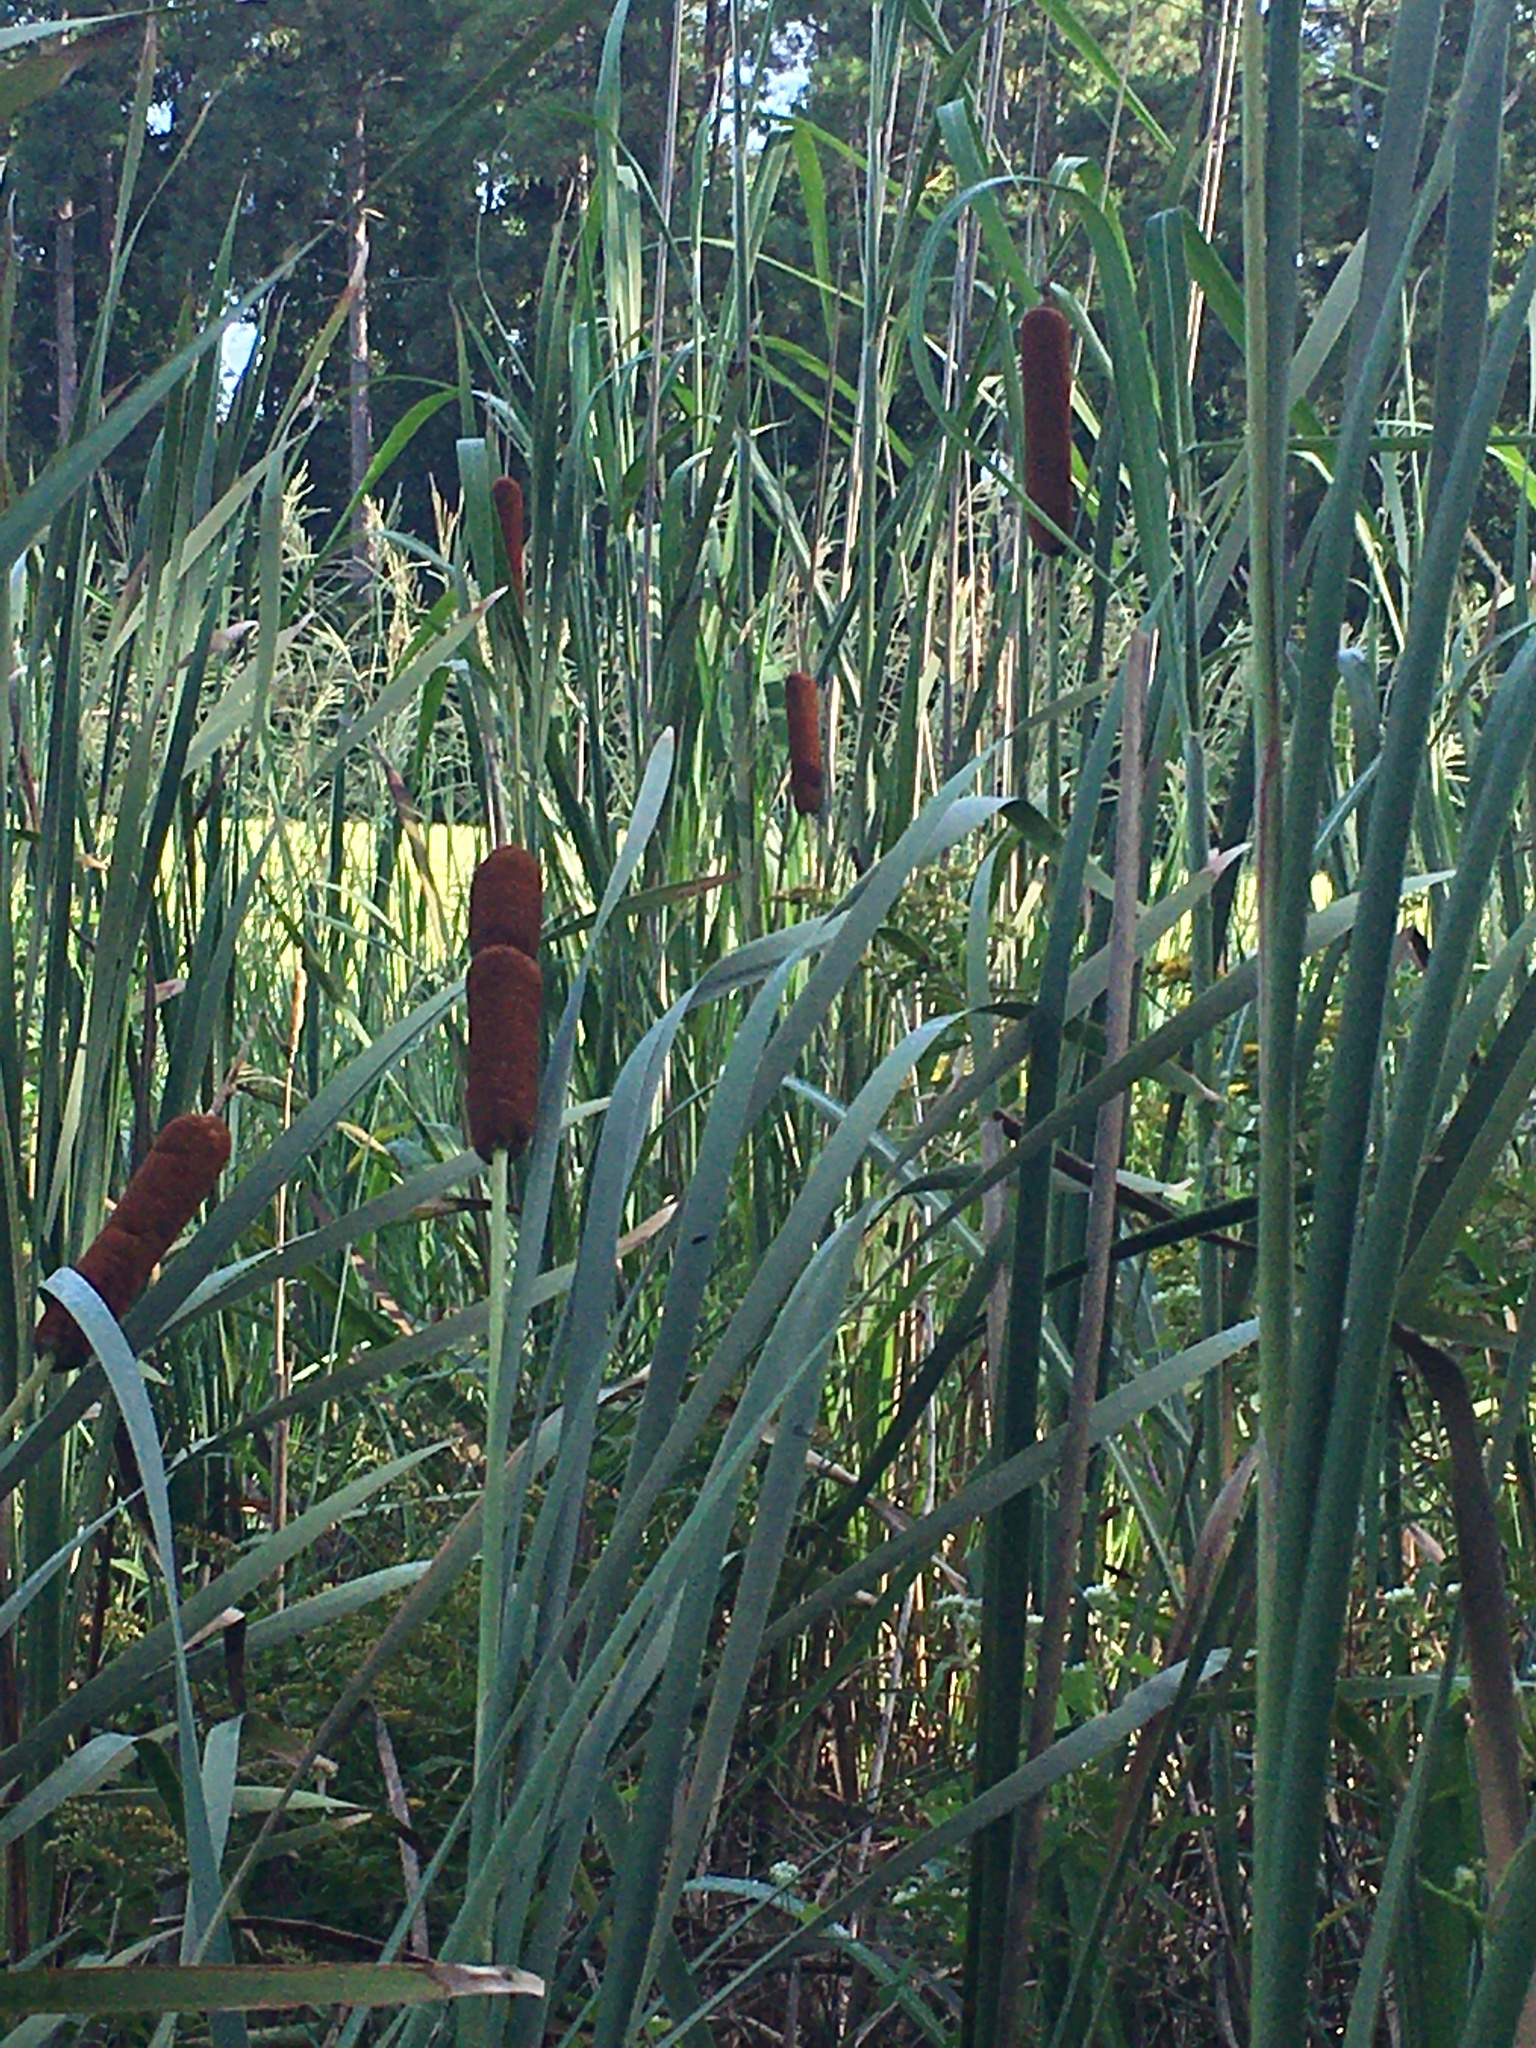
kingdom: Plantae
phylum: Tracheophyta
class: Liliopsida
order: Poales
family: Typhaceae
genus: Typha
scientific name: Typha latifolia
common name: Broadleaf cattail
